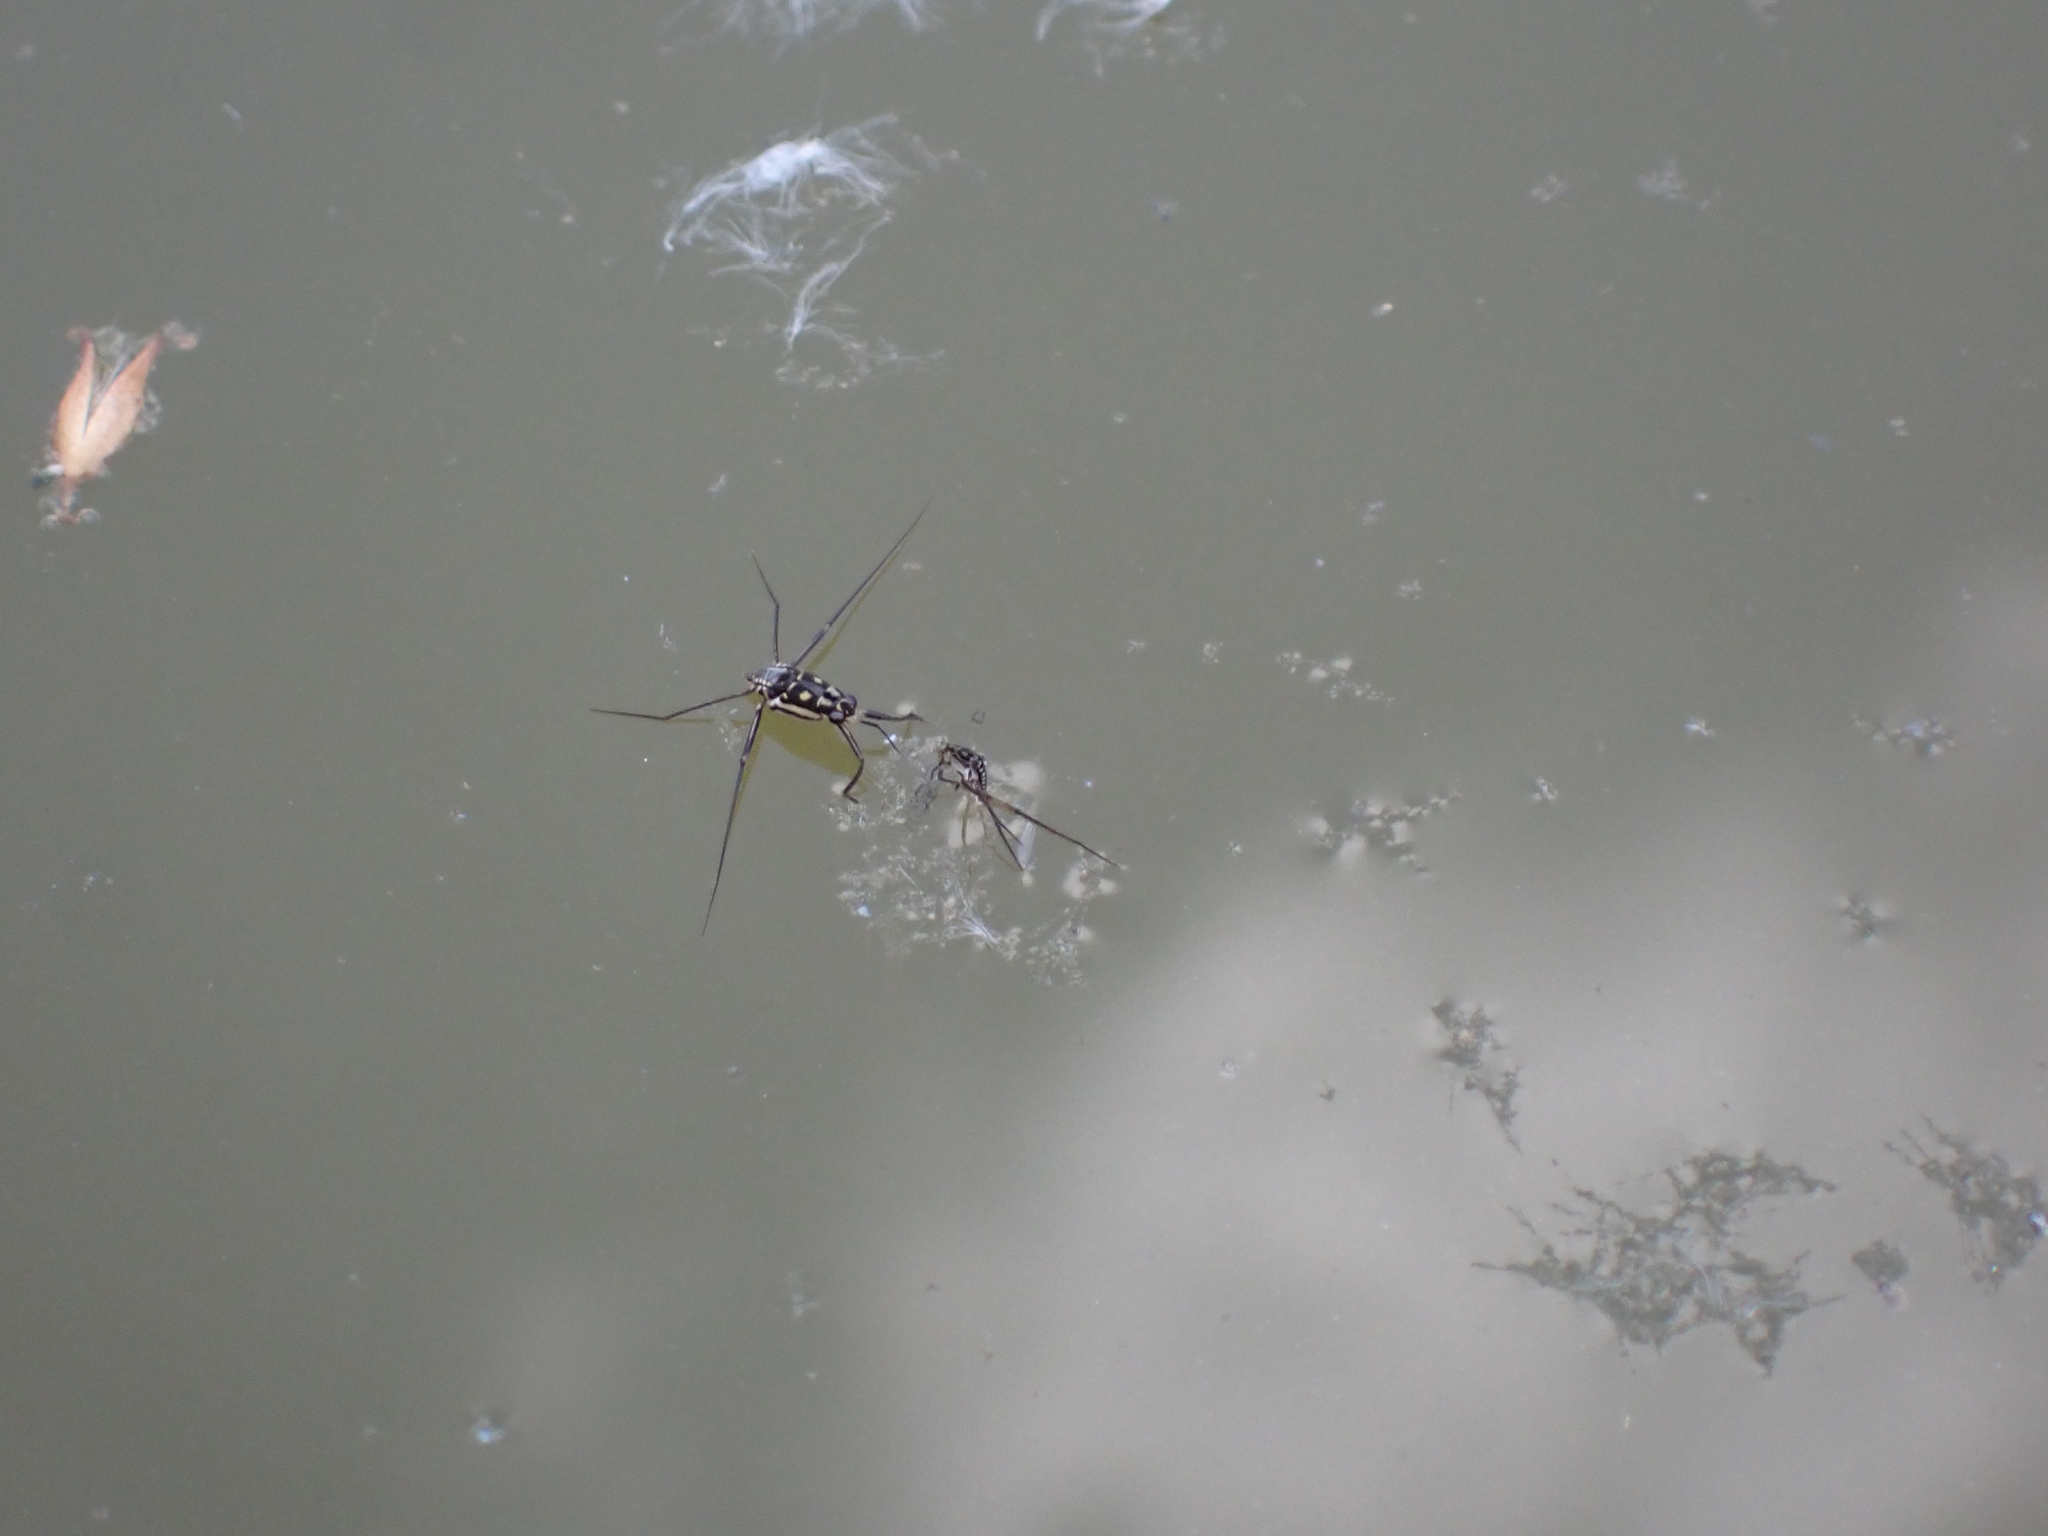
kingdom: Animalia
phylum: Arthropoda
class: Insecta
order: Hemiptera
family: Gerridae
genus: Trepobates
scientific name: Trepobates subnitidus
